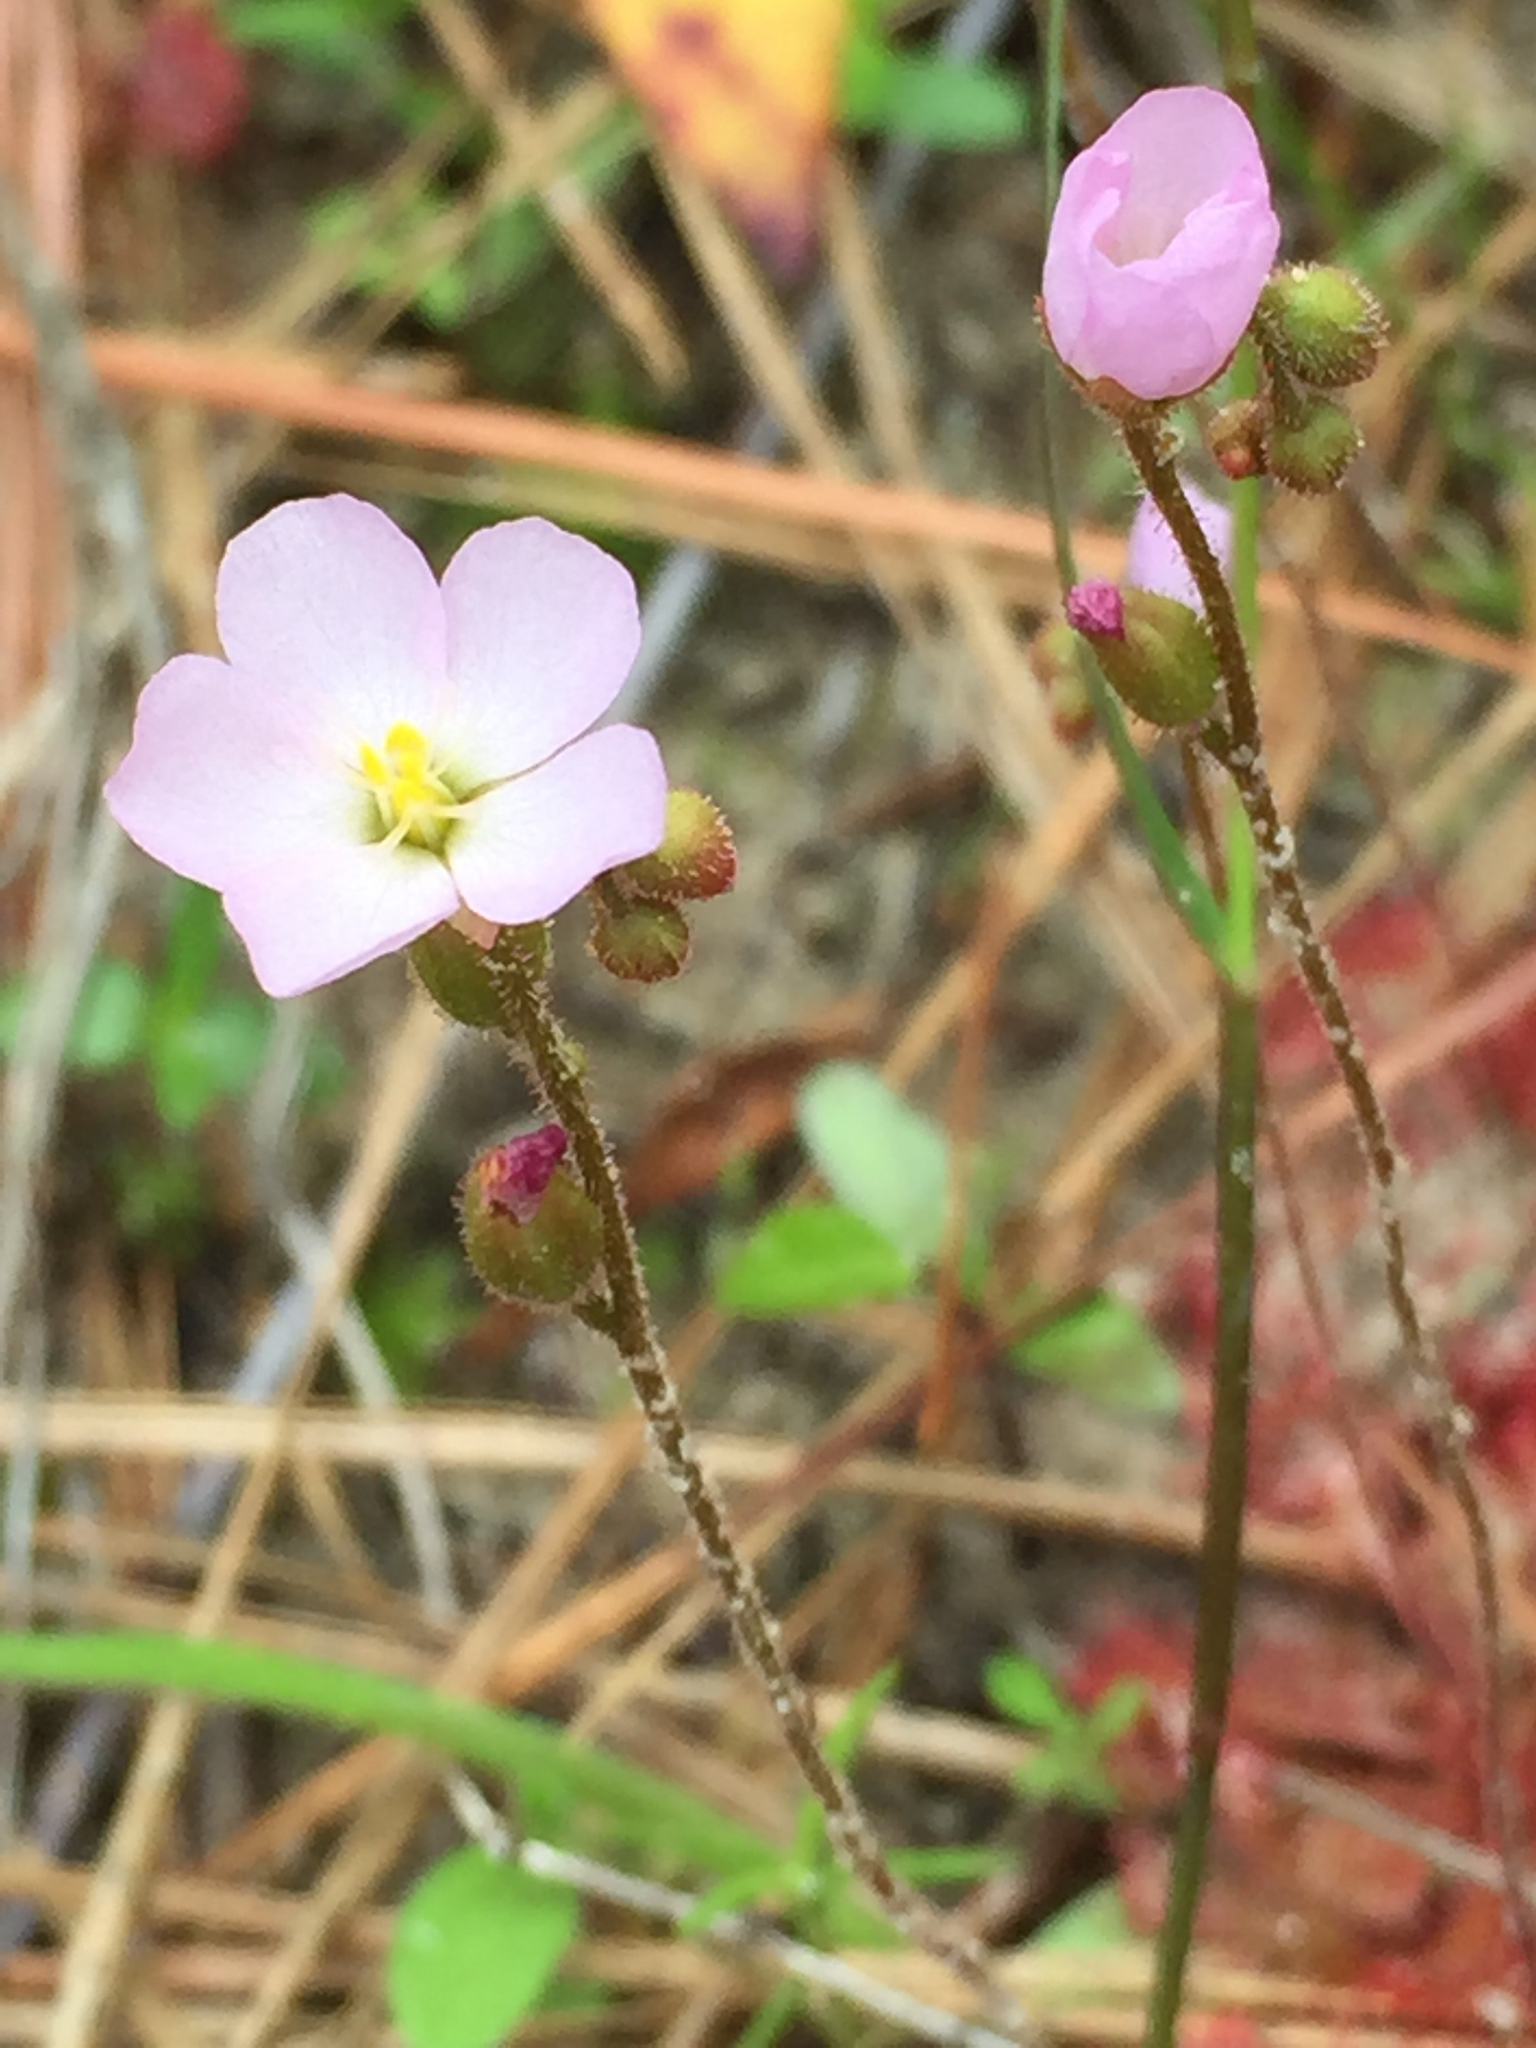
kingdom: Plantae
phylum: Tracheophyta
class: Magnoliopsida
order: Caryophyllales
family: Droseraceae
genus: Drosera
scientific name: Drosera brevifolia
